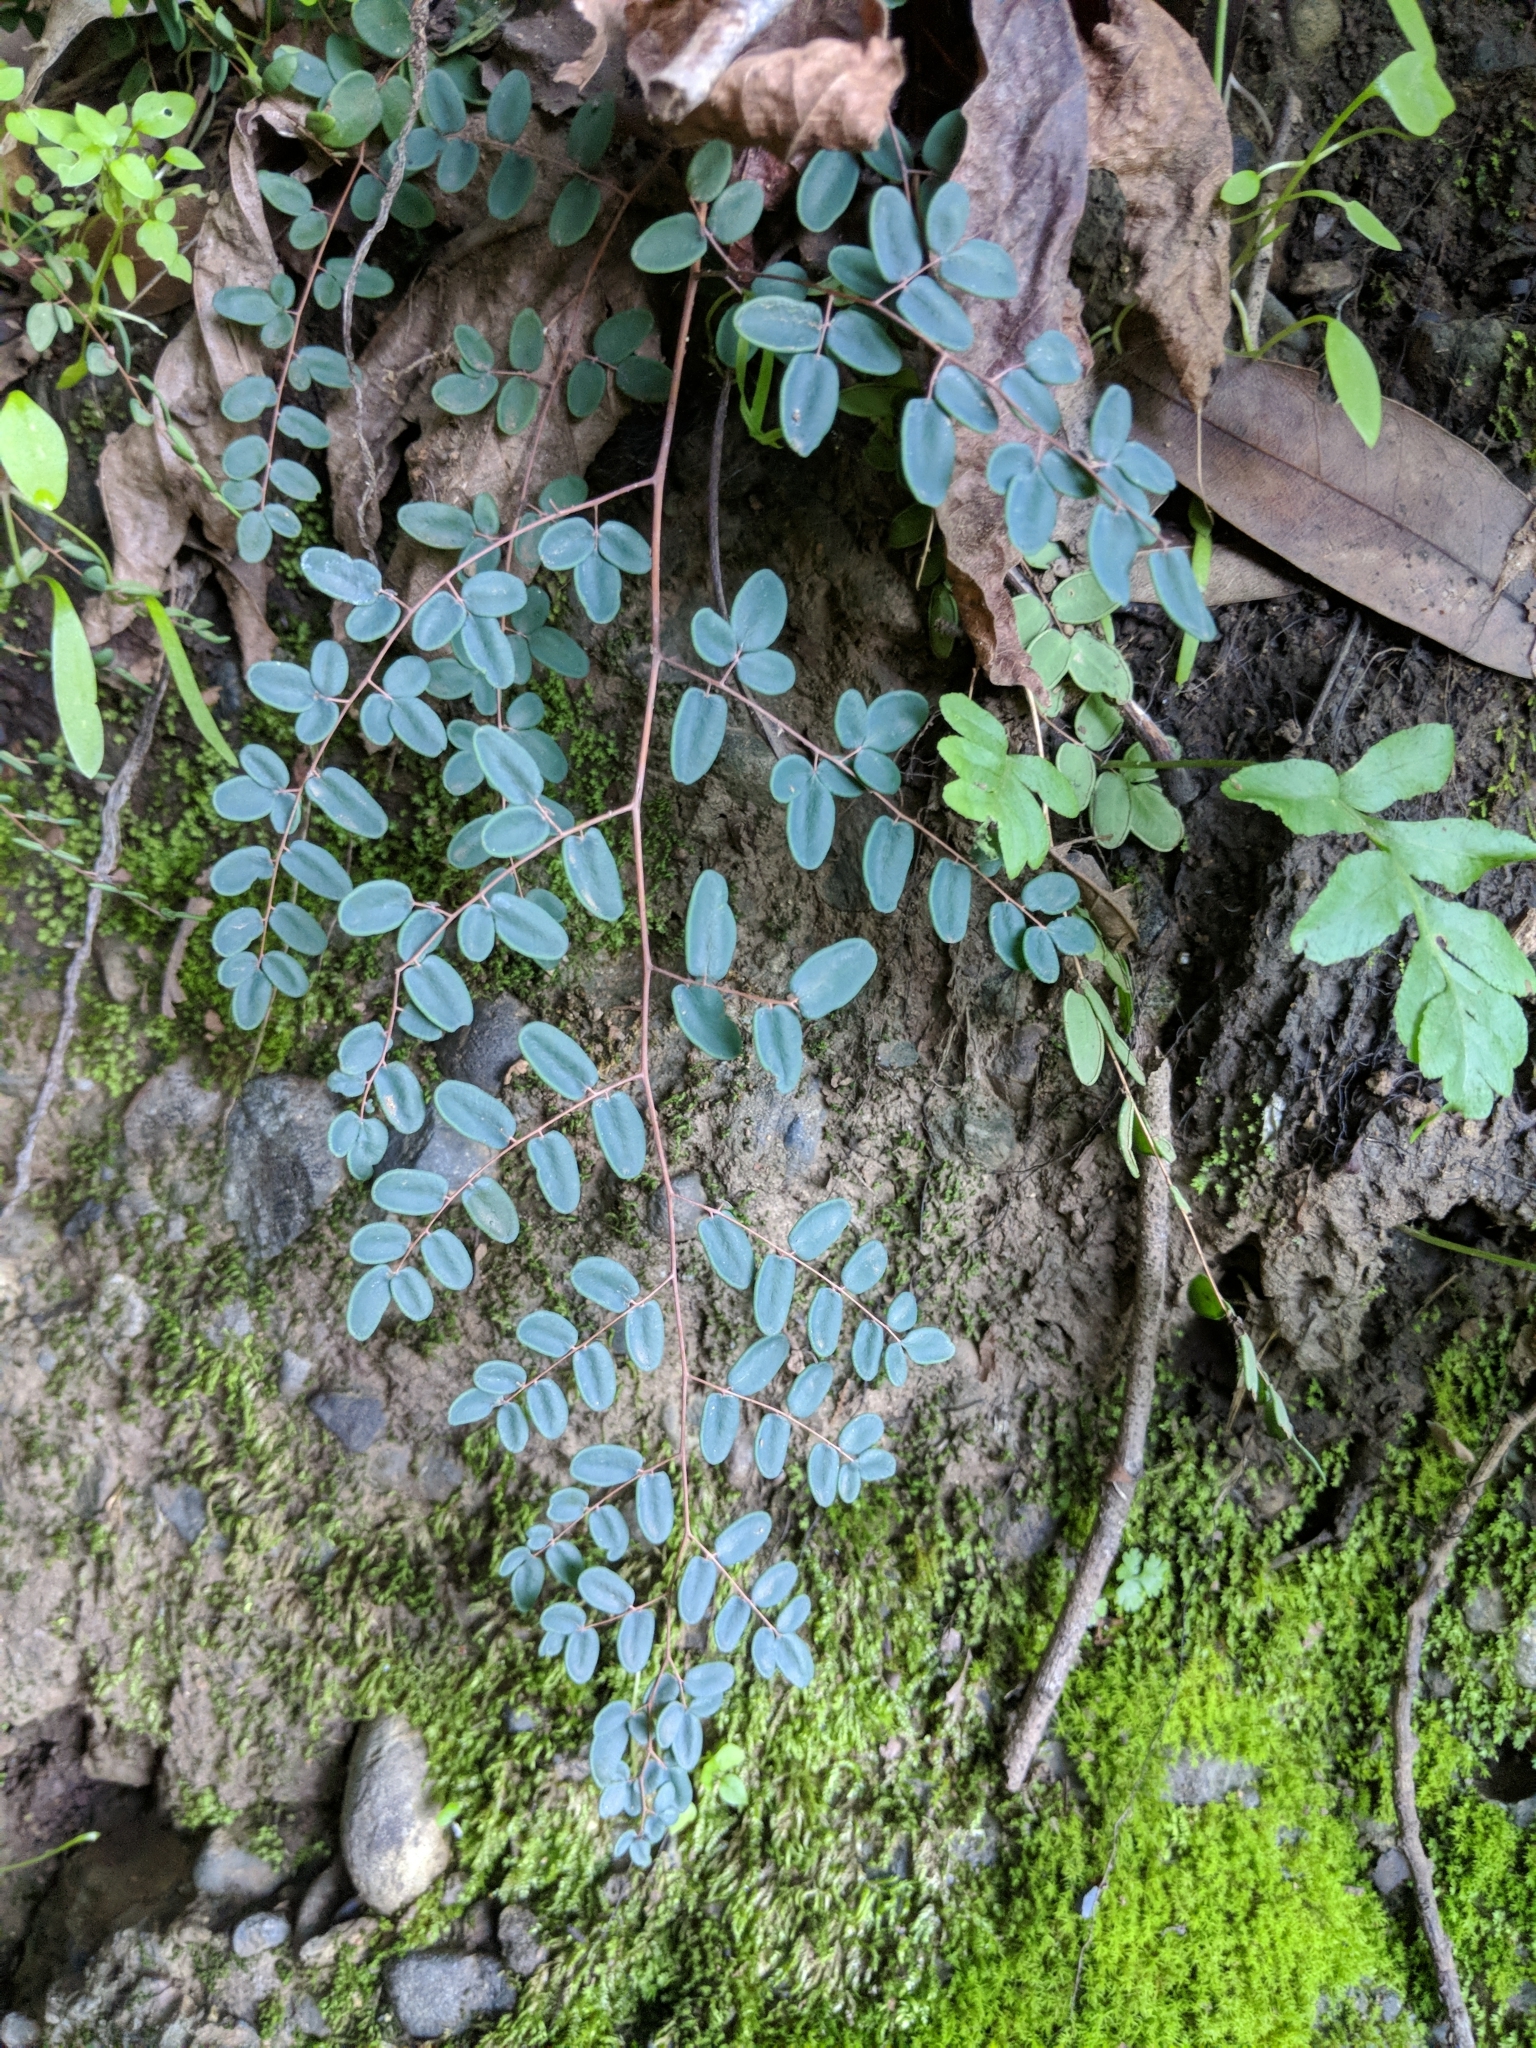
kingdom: Plantae
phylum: Tracheophyta
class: Polypodiopsida
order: Polypodiales
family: Pteridaceae
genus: Pellaea
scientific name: Pellaea andromedifolia
